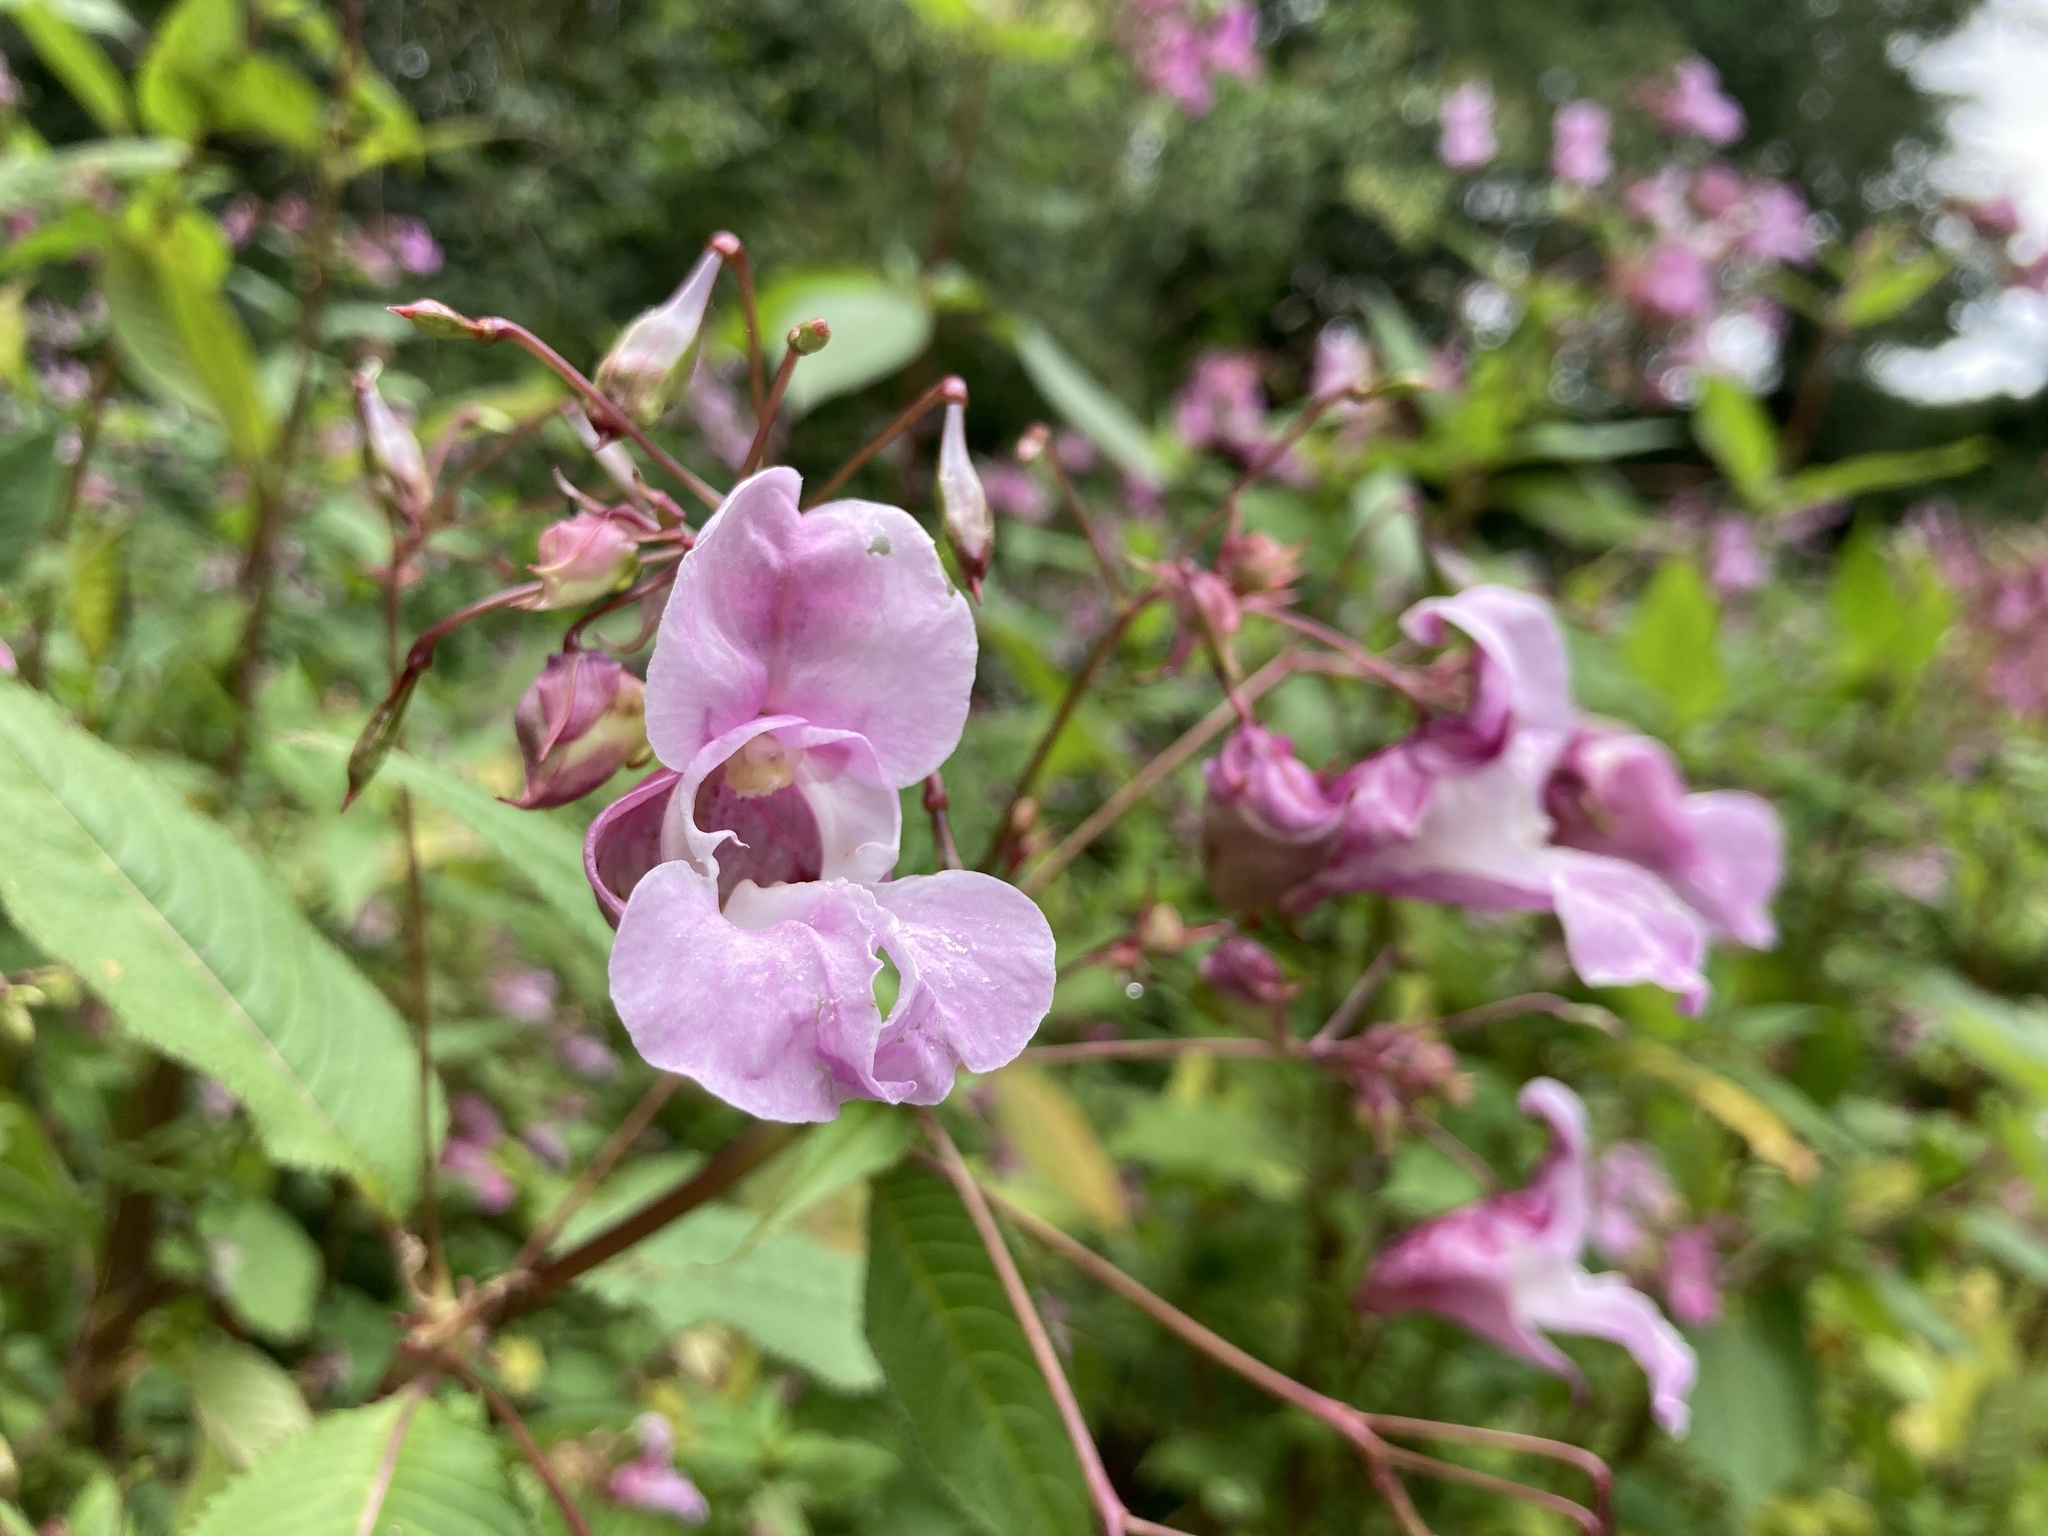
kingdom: Plantae
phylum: Tracheophyta
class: Magnoliopsida
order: Ericales
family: Balsaminaceae
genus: Impatiens
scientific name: Impatiens glandulifera
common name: Himalayan balsam
